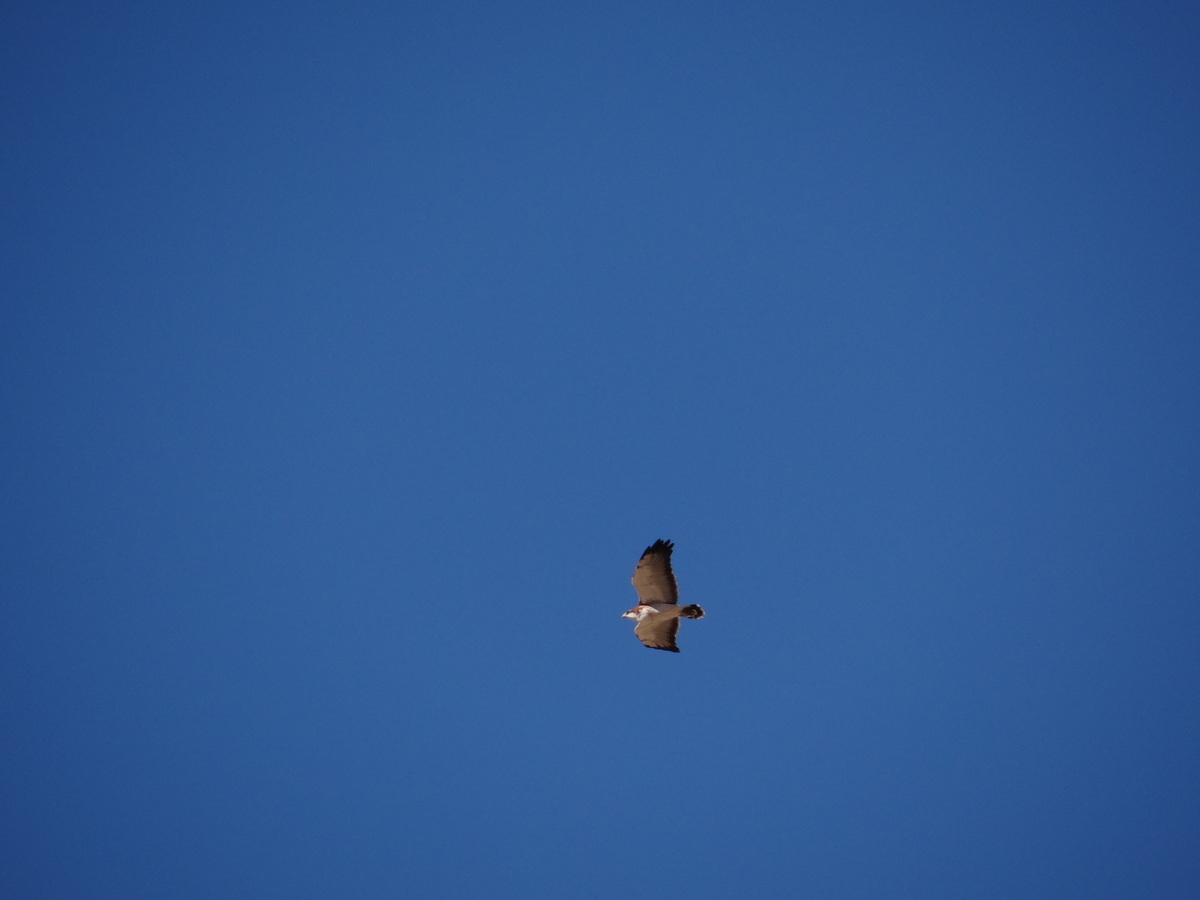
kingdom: Animalia
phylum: Chordata
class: Aves
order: Accipitriformes
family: Accipitridae
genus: Buteo
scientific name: Buteo polyosoma
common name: Variable hawk
